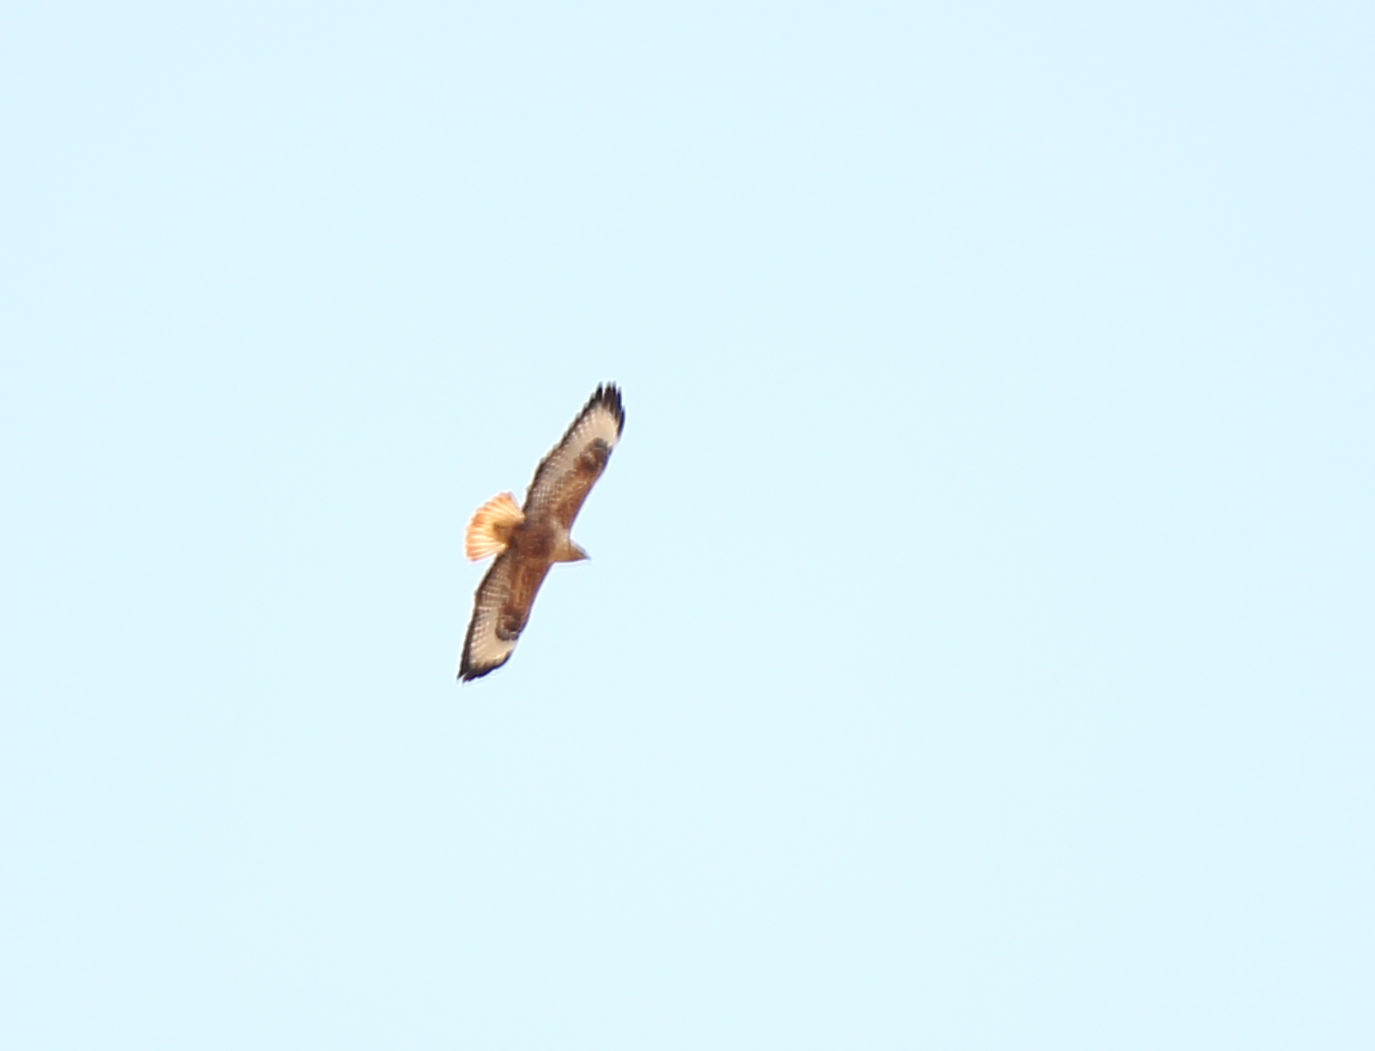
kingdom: Animalia
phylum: Chordata
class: Aves
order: Accipitriformes
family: Accipitridae
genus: Buteo
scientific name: Buteo rufinus
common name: Long-legged buzzard
